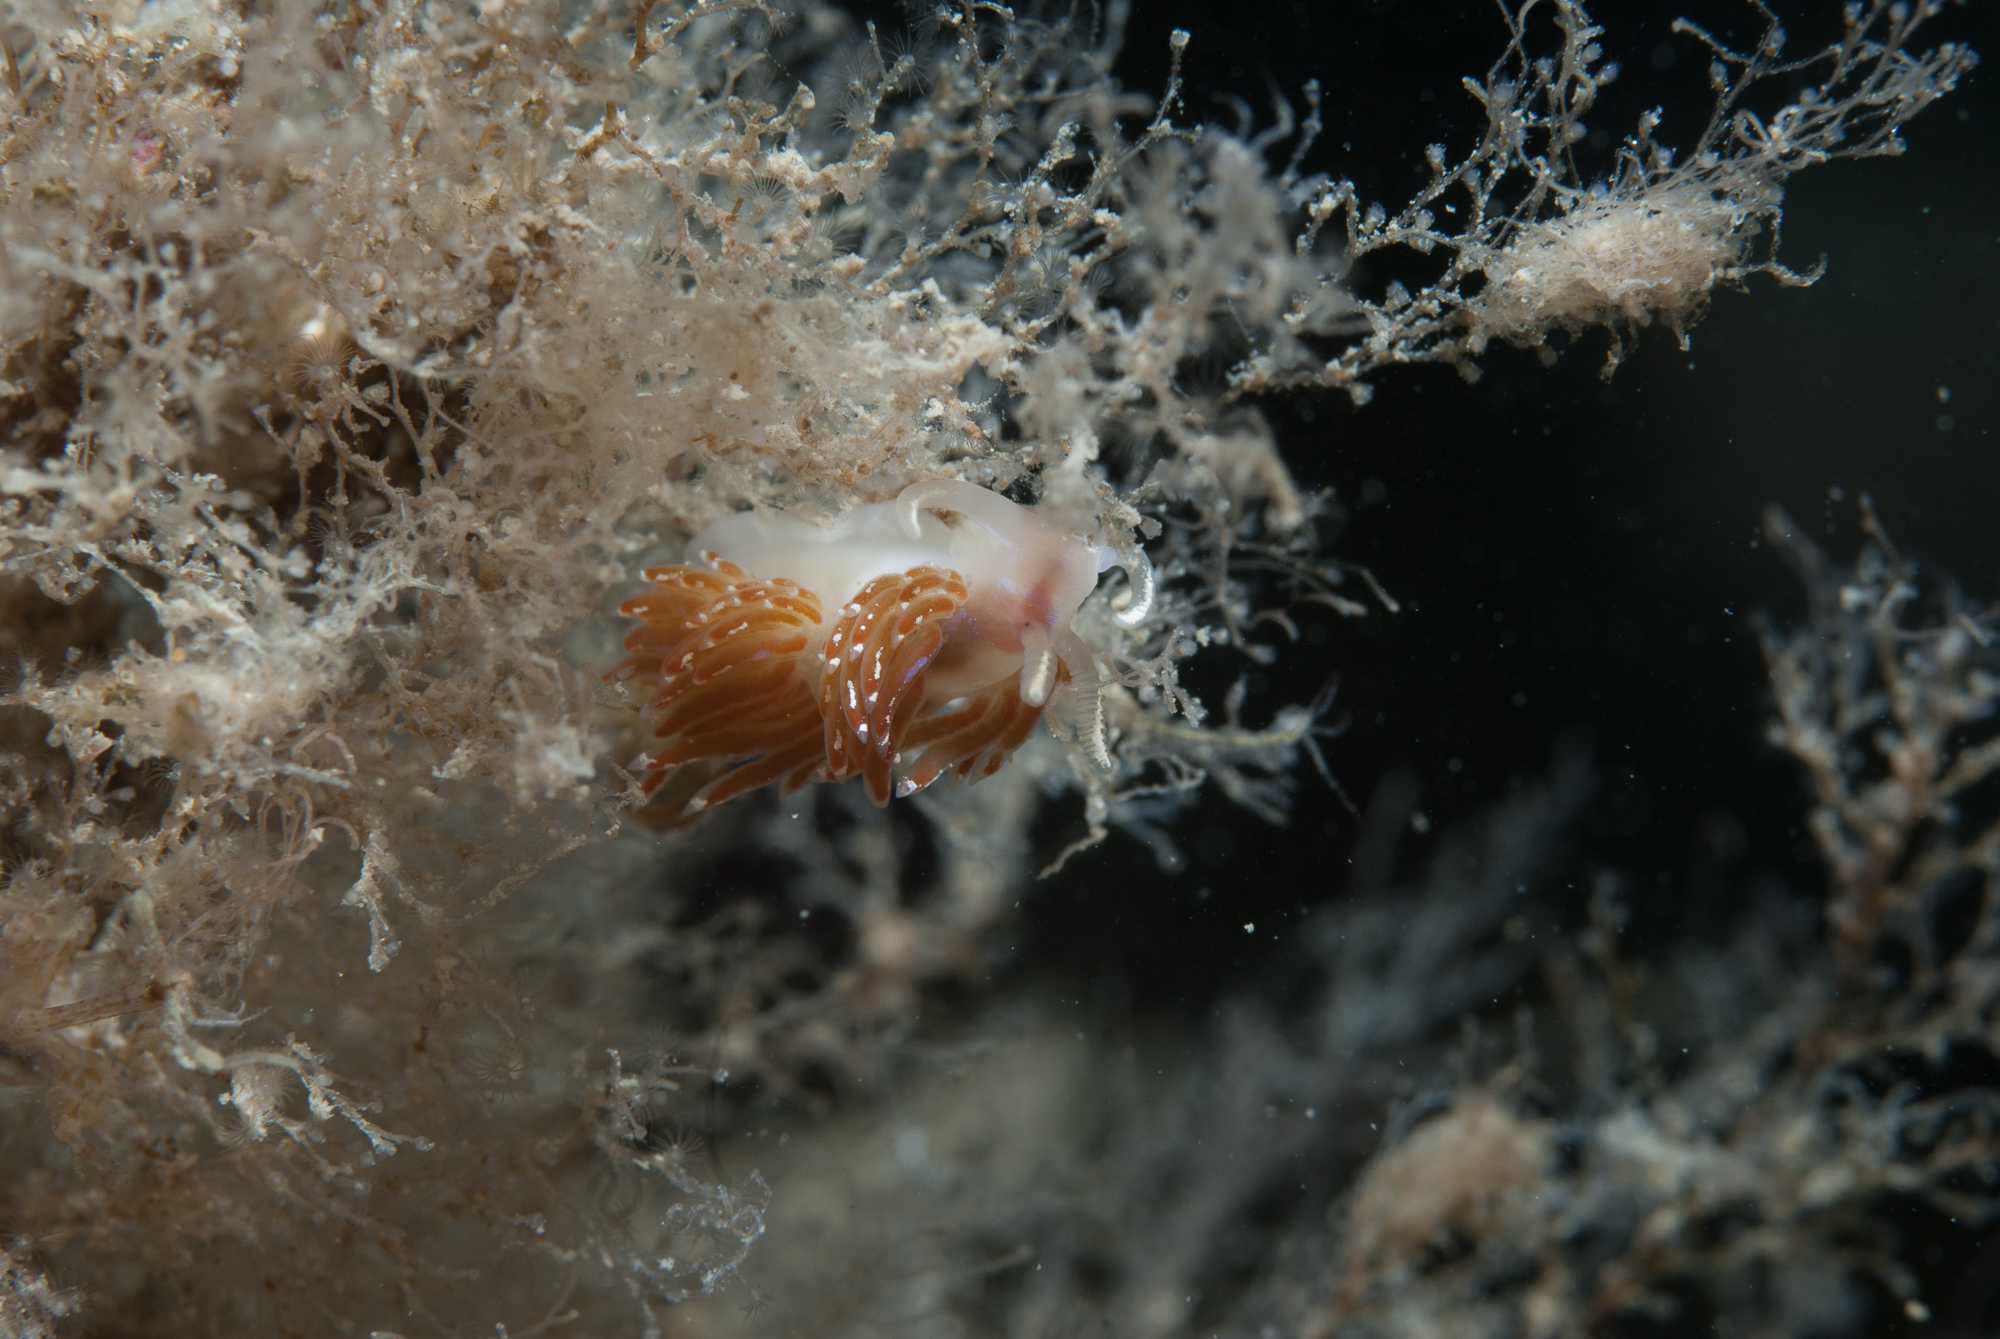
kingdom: Animalia
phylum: Mollusca
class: Gastropoda
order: Nudibranchia
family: Facelinidae
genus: Facelina
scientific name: Facelina auriculata
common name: Slender facelina
